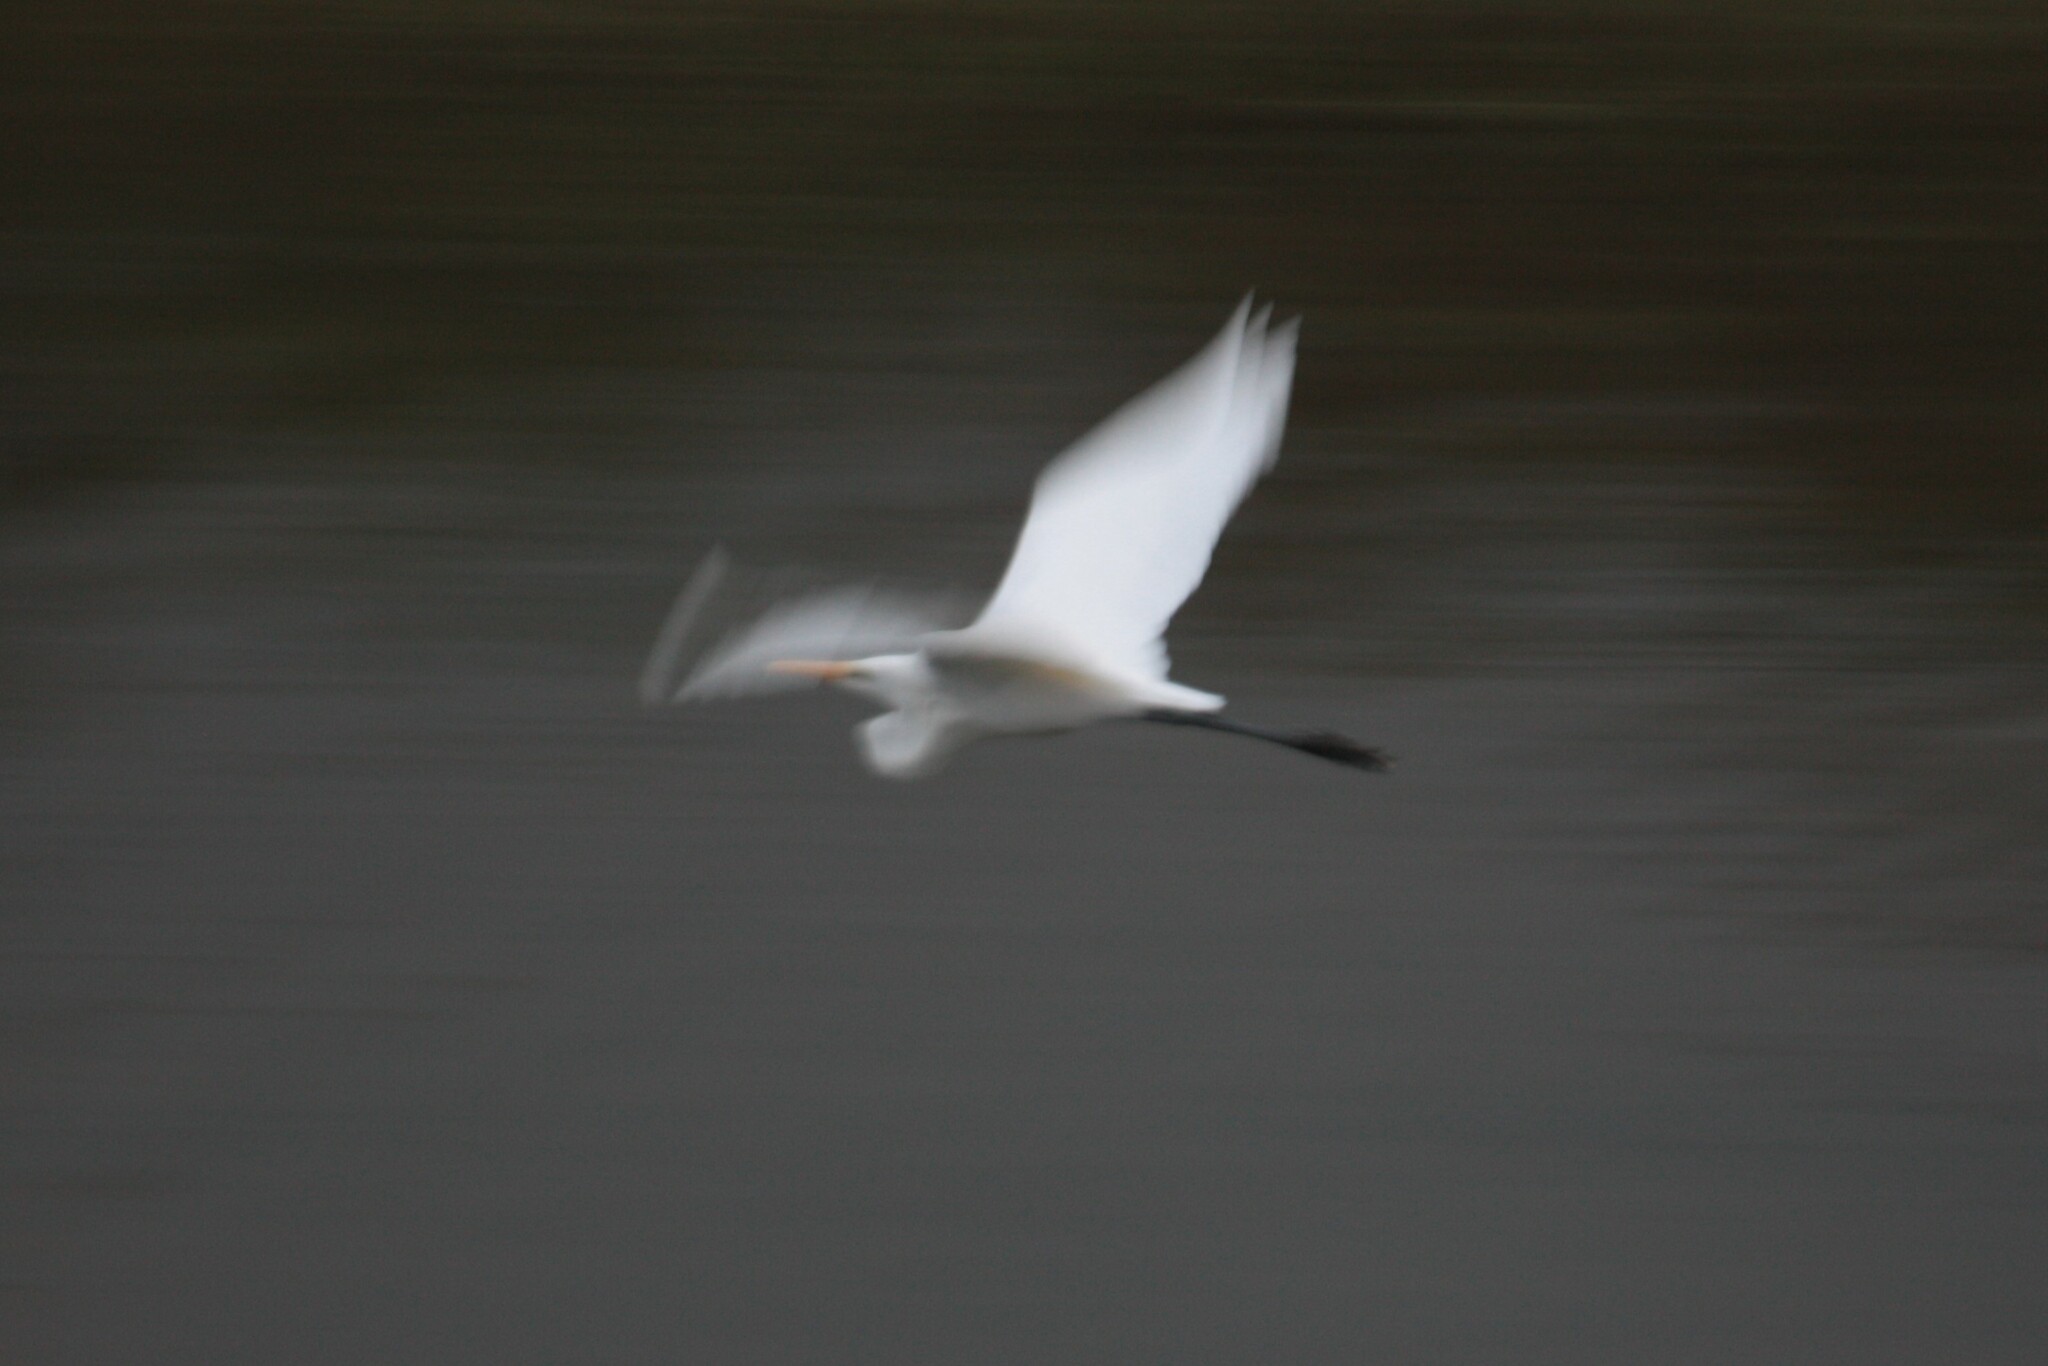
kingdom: Animalia
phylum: Chordata
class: Aves
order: Pelecaniformes
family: Ardeidae
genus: Ardea
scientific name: Ardea alba
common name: Great egret
